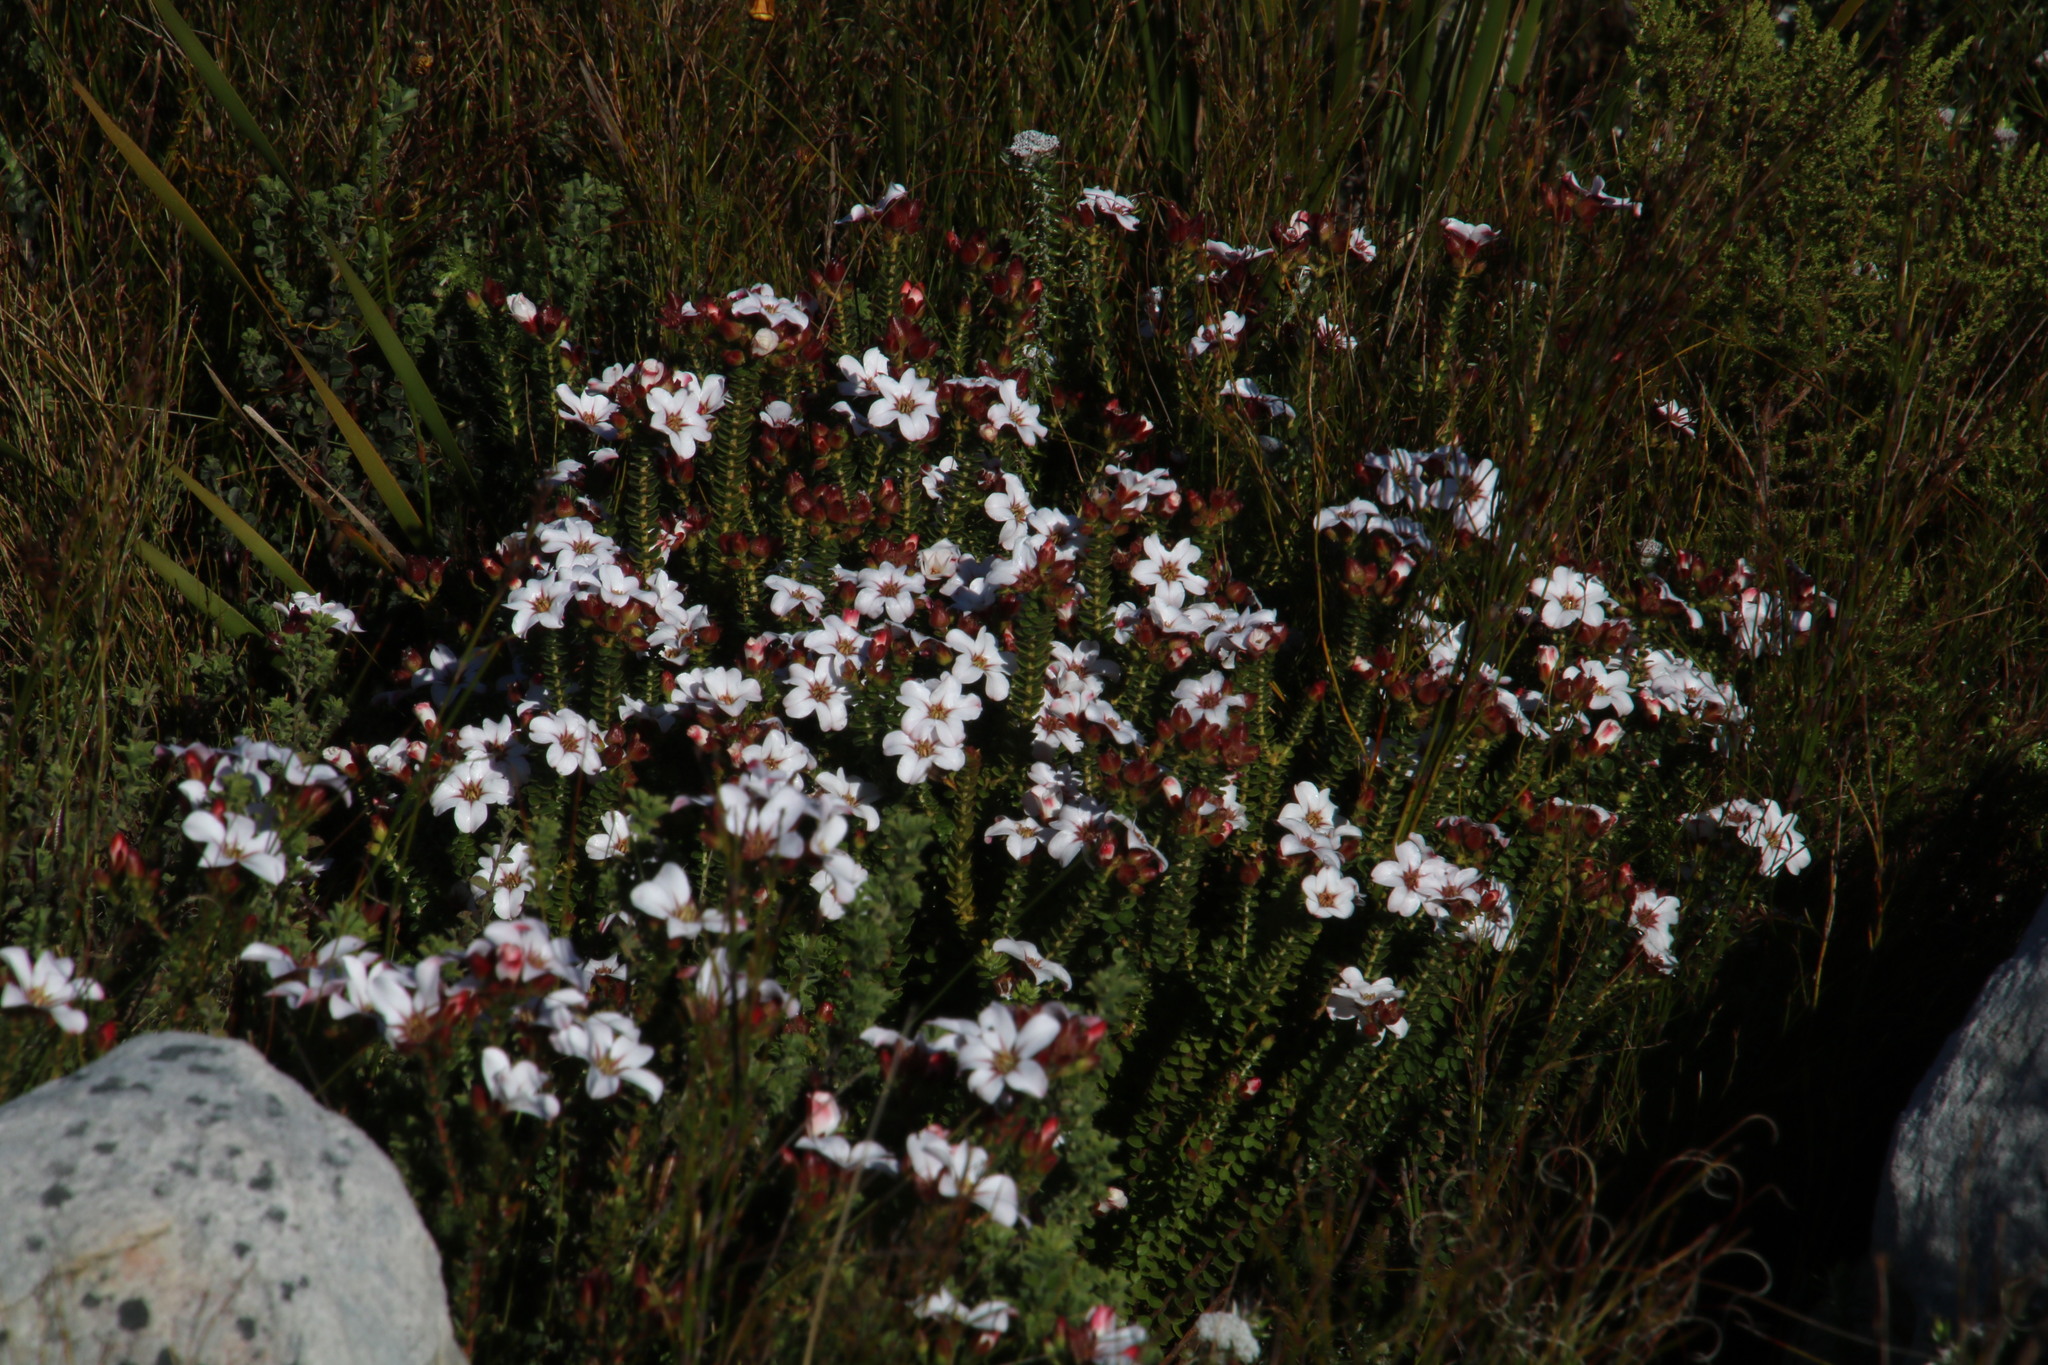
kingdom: Plantae
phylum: Tracheophyta
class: Magnoliopsida
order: Sapindales
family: Rutaceae
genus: Adenandra
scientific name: Adenandra villosa
